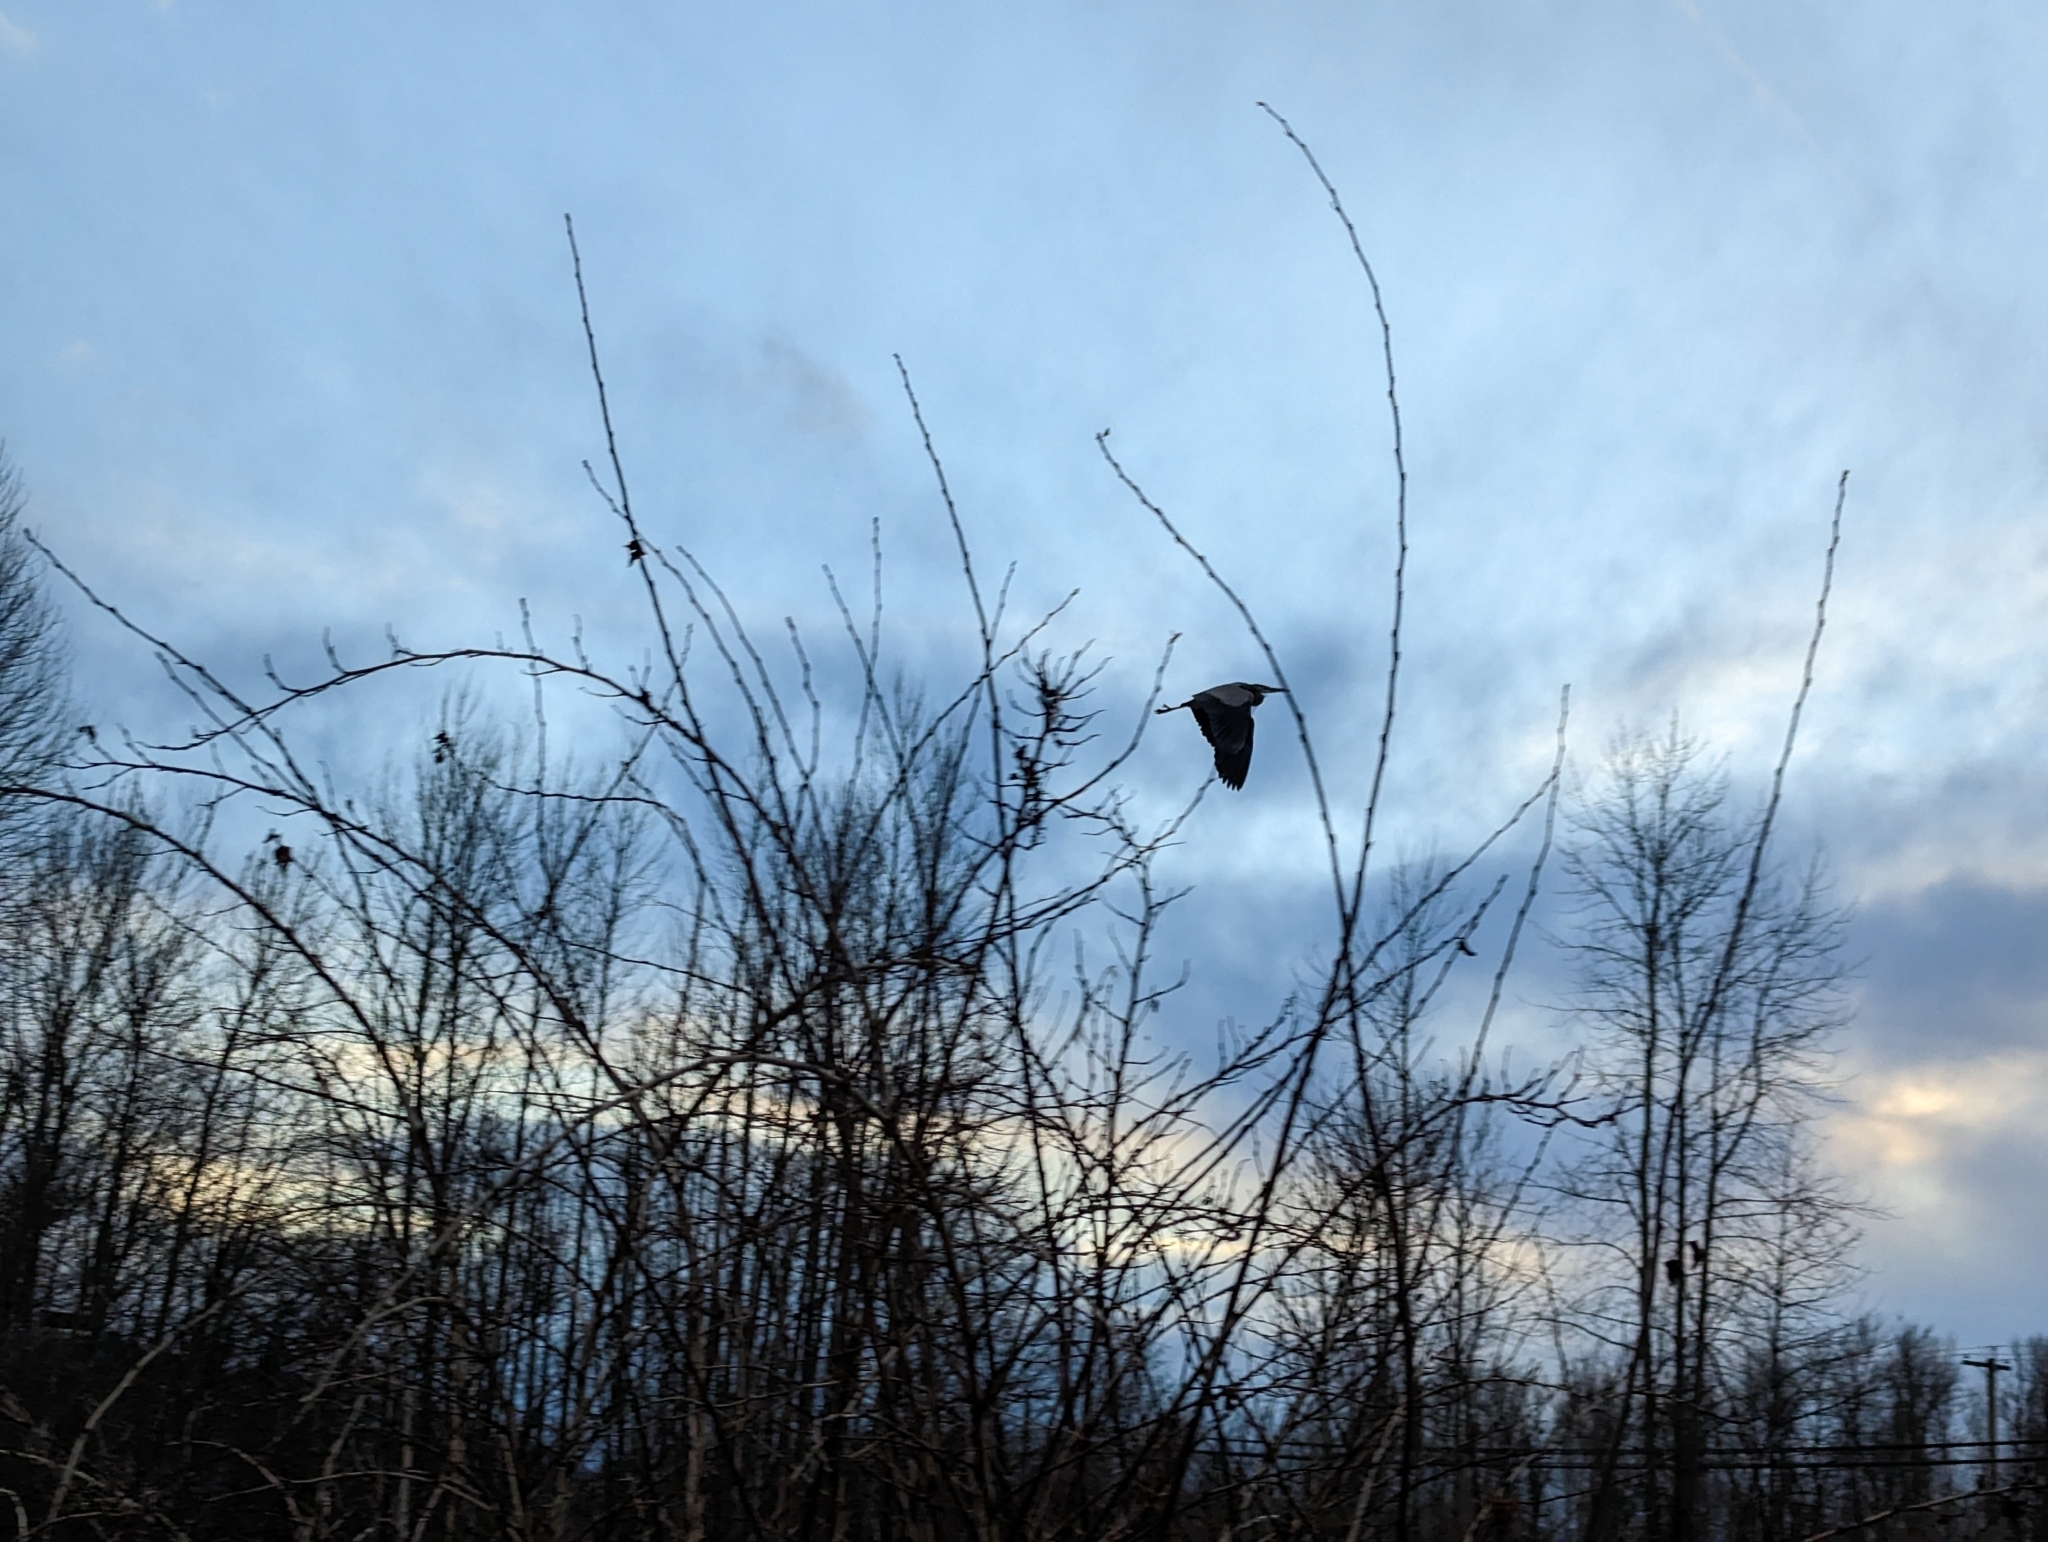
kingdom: Animalia
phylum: Chordata
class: Aves
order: Pelecaniformes
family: Ardeidae
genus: Ardea
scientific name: Ardea herodias
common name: Great blue heron
